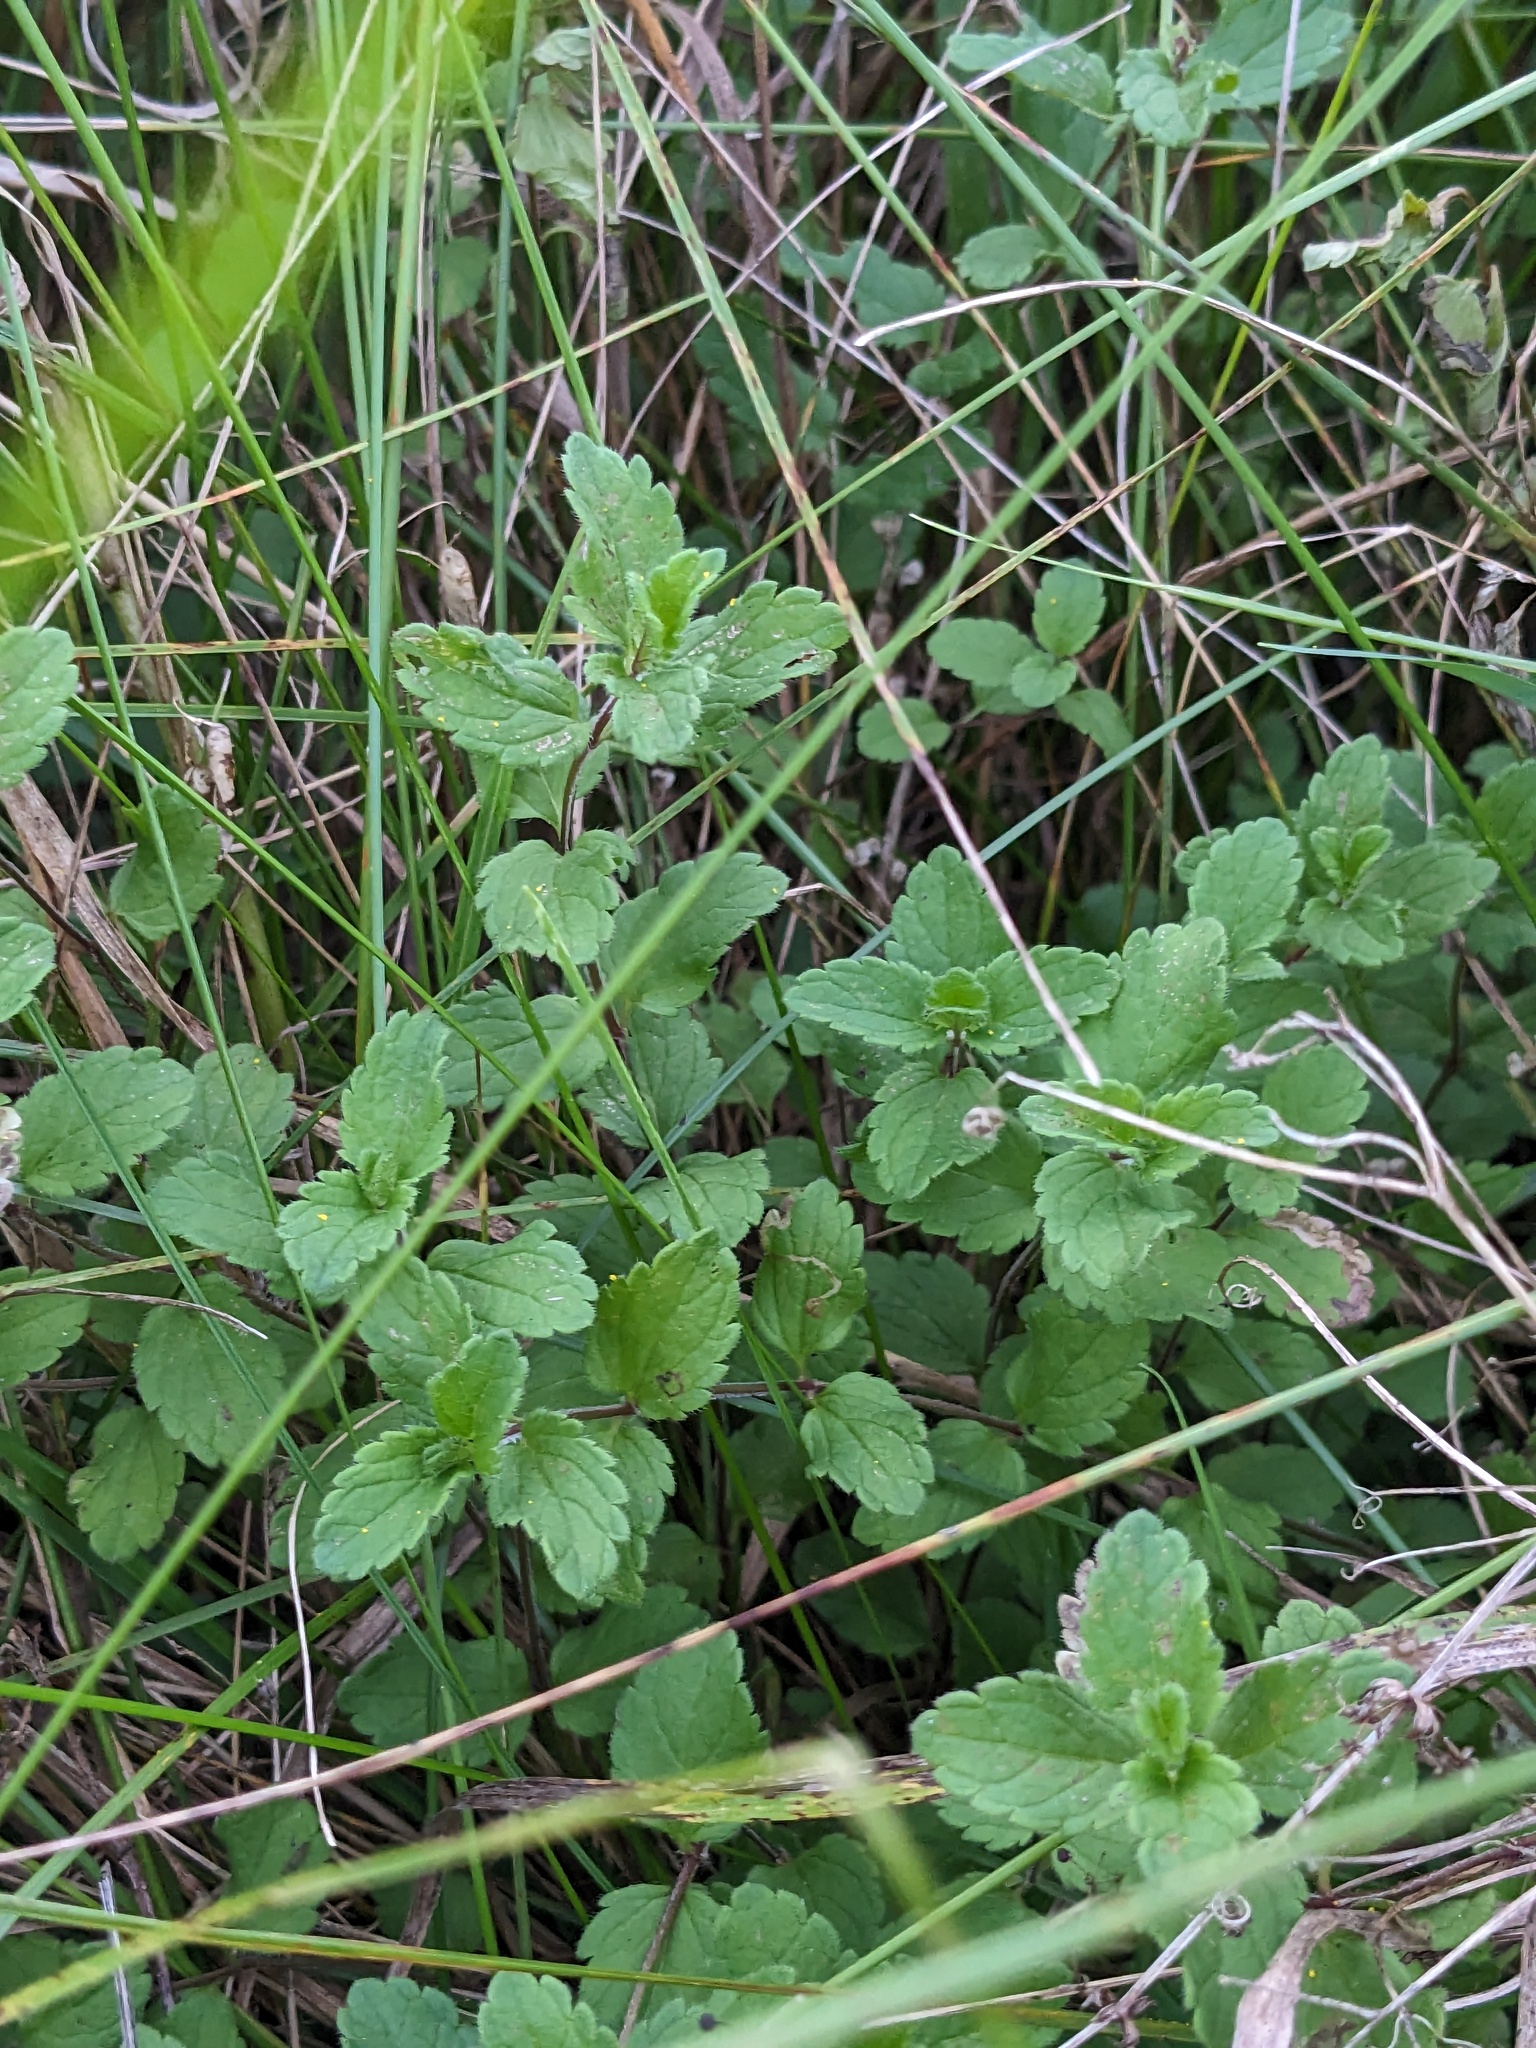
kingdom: Plantae
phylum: Tracheophyta
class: Magnoliopsida
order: Lamiales
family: Plantaginaceae
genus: Veronica
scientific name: Veronica chamaedrys
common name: Germander speedwell
